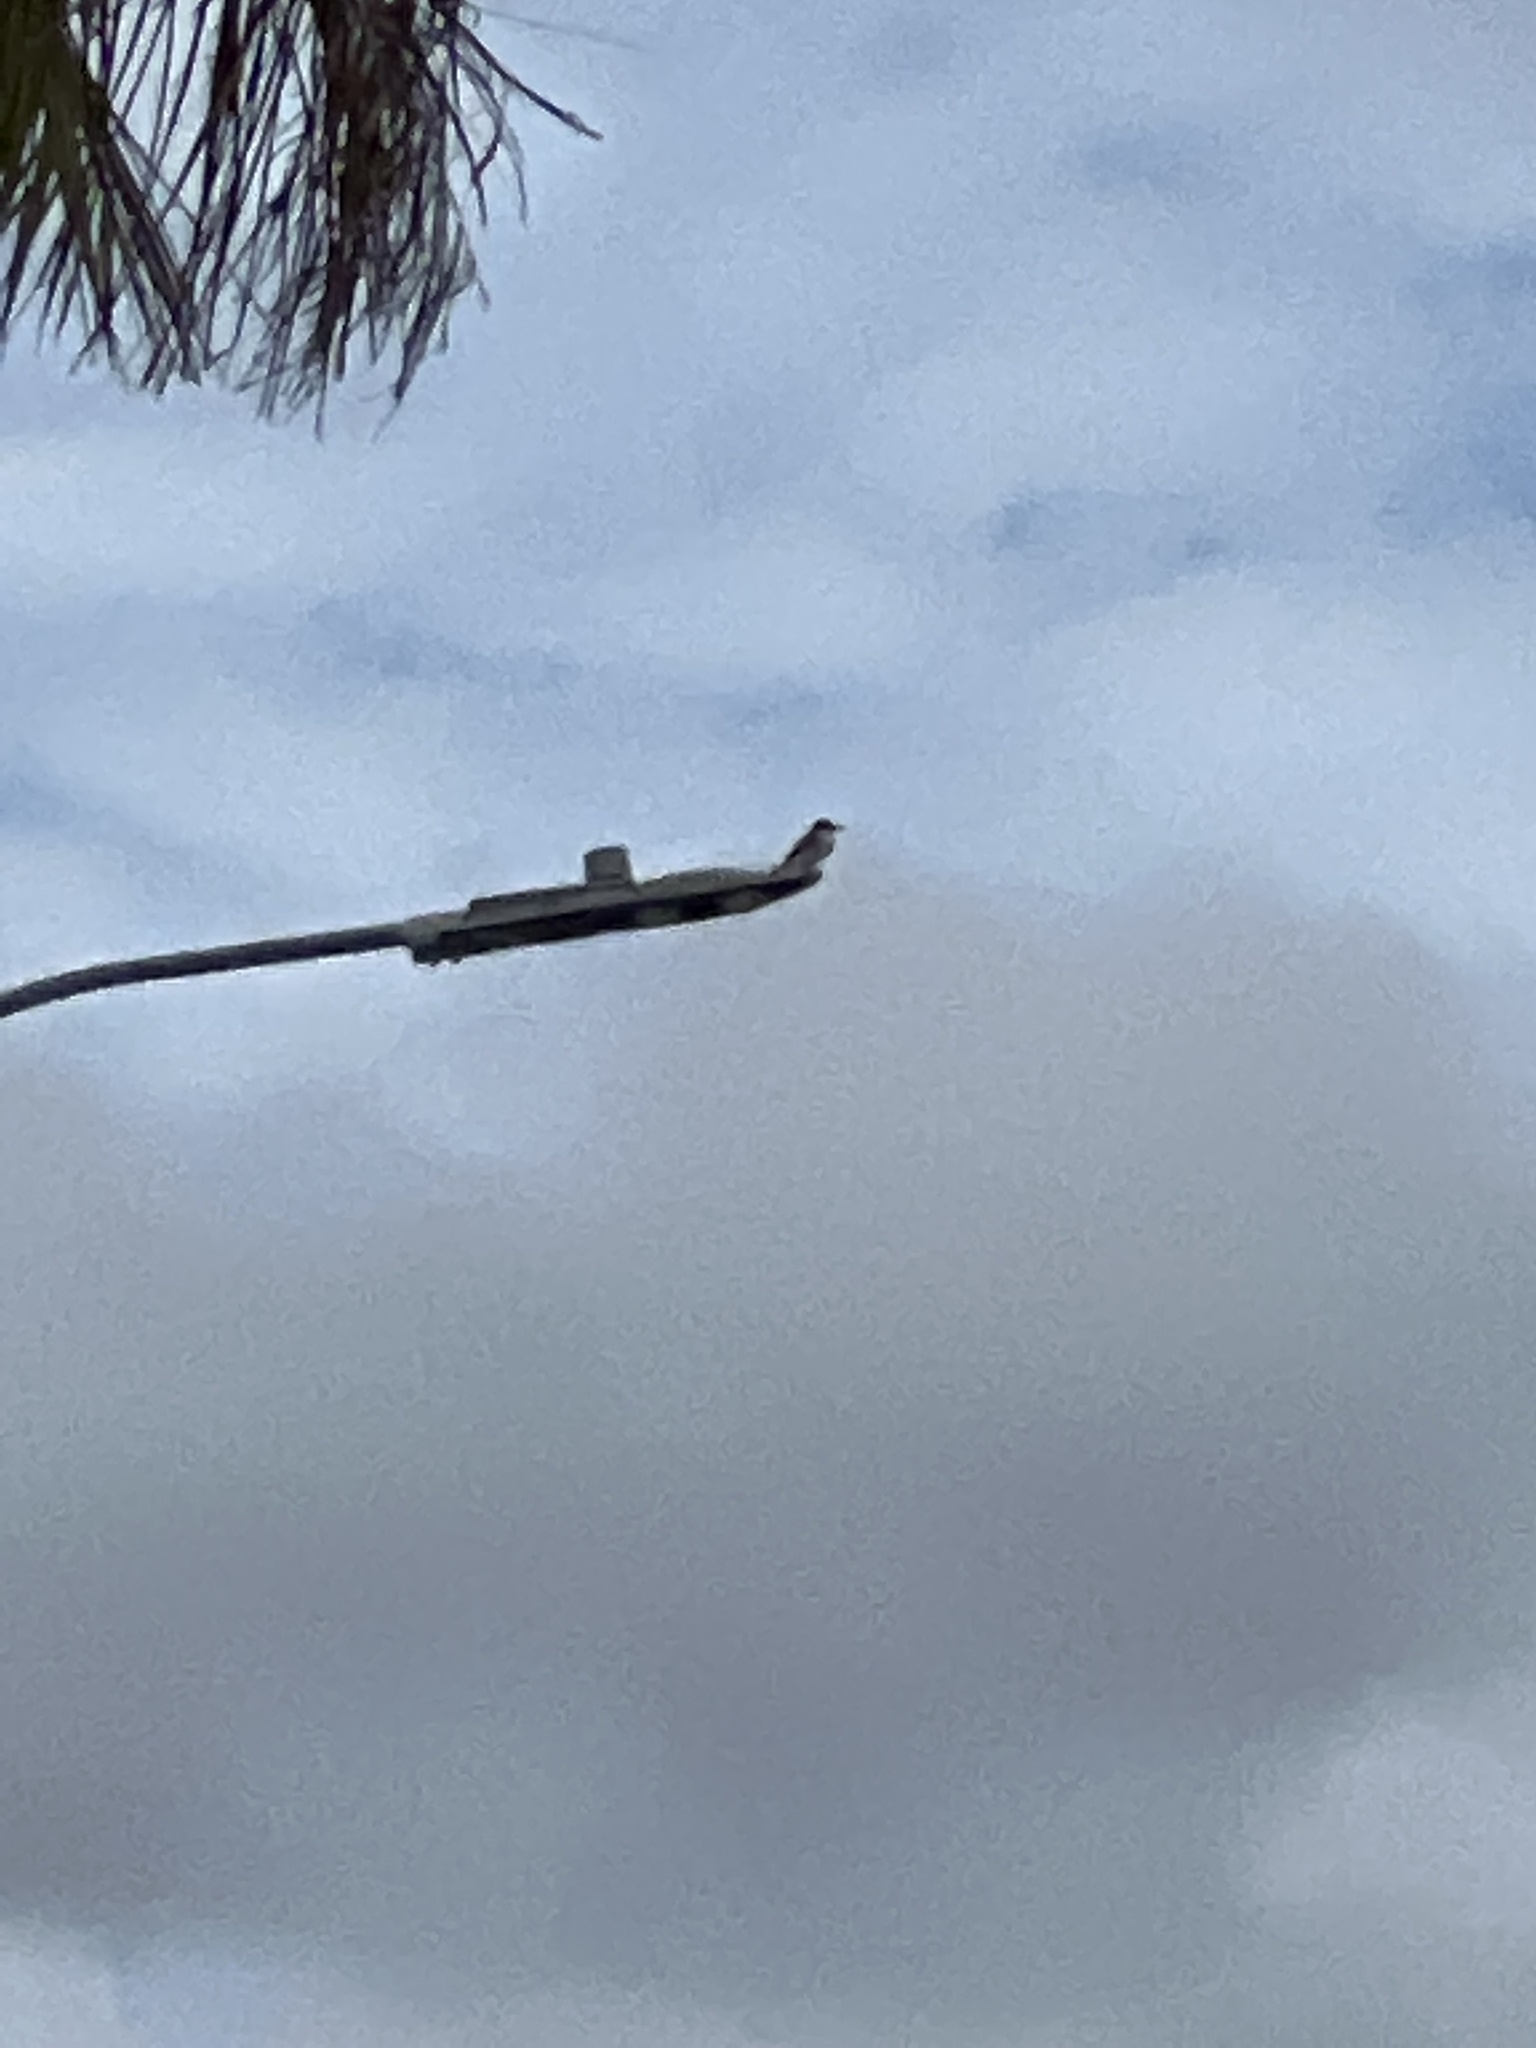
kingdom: Animalia
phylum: Chordata
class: Aves
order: Passeriformes
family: Tyrannidae
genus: Tyrannus
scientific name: Tyrannus dominicensis
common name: Gray kingbird
